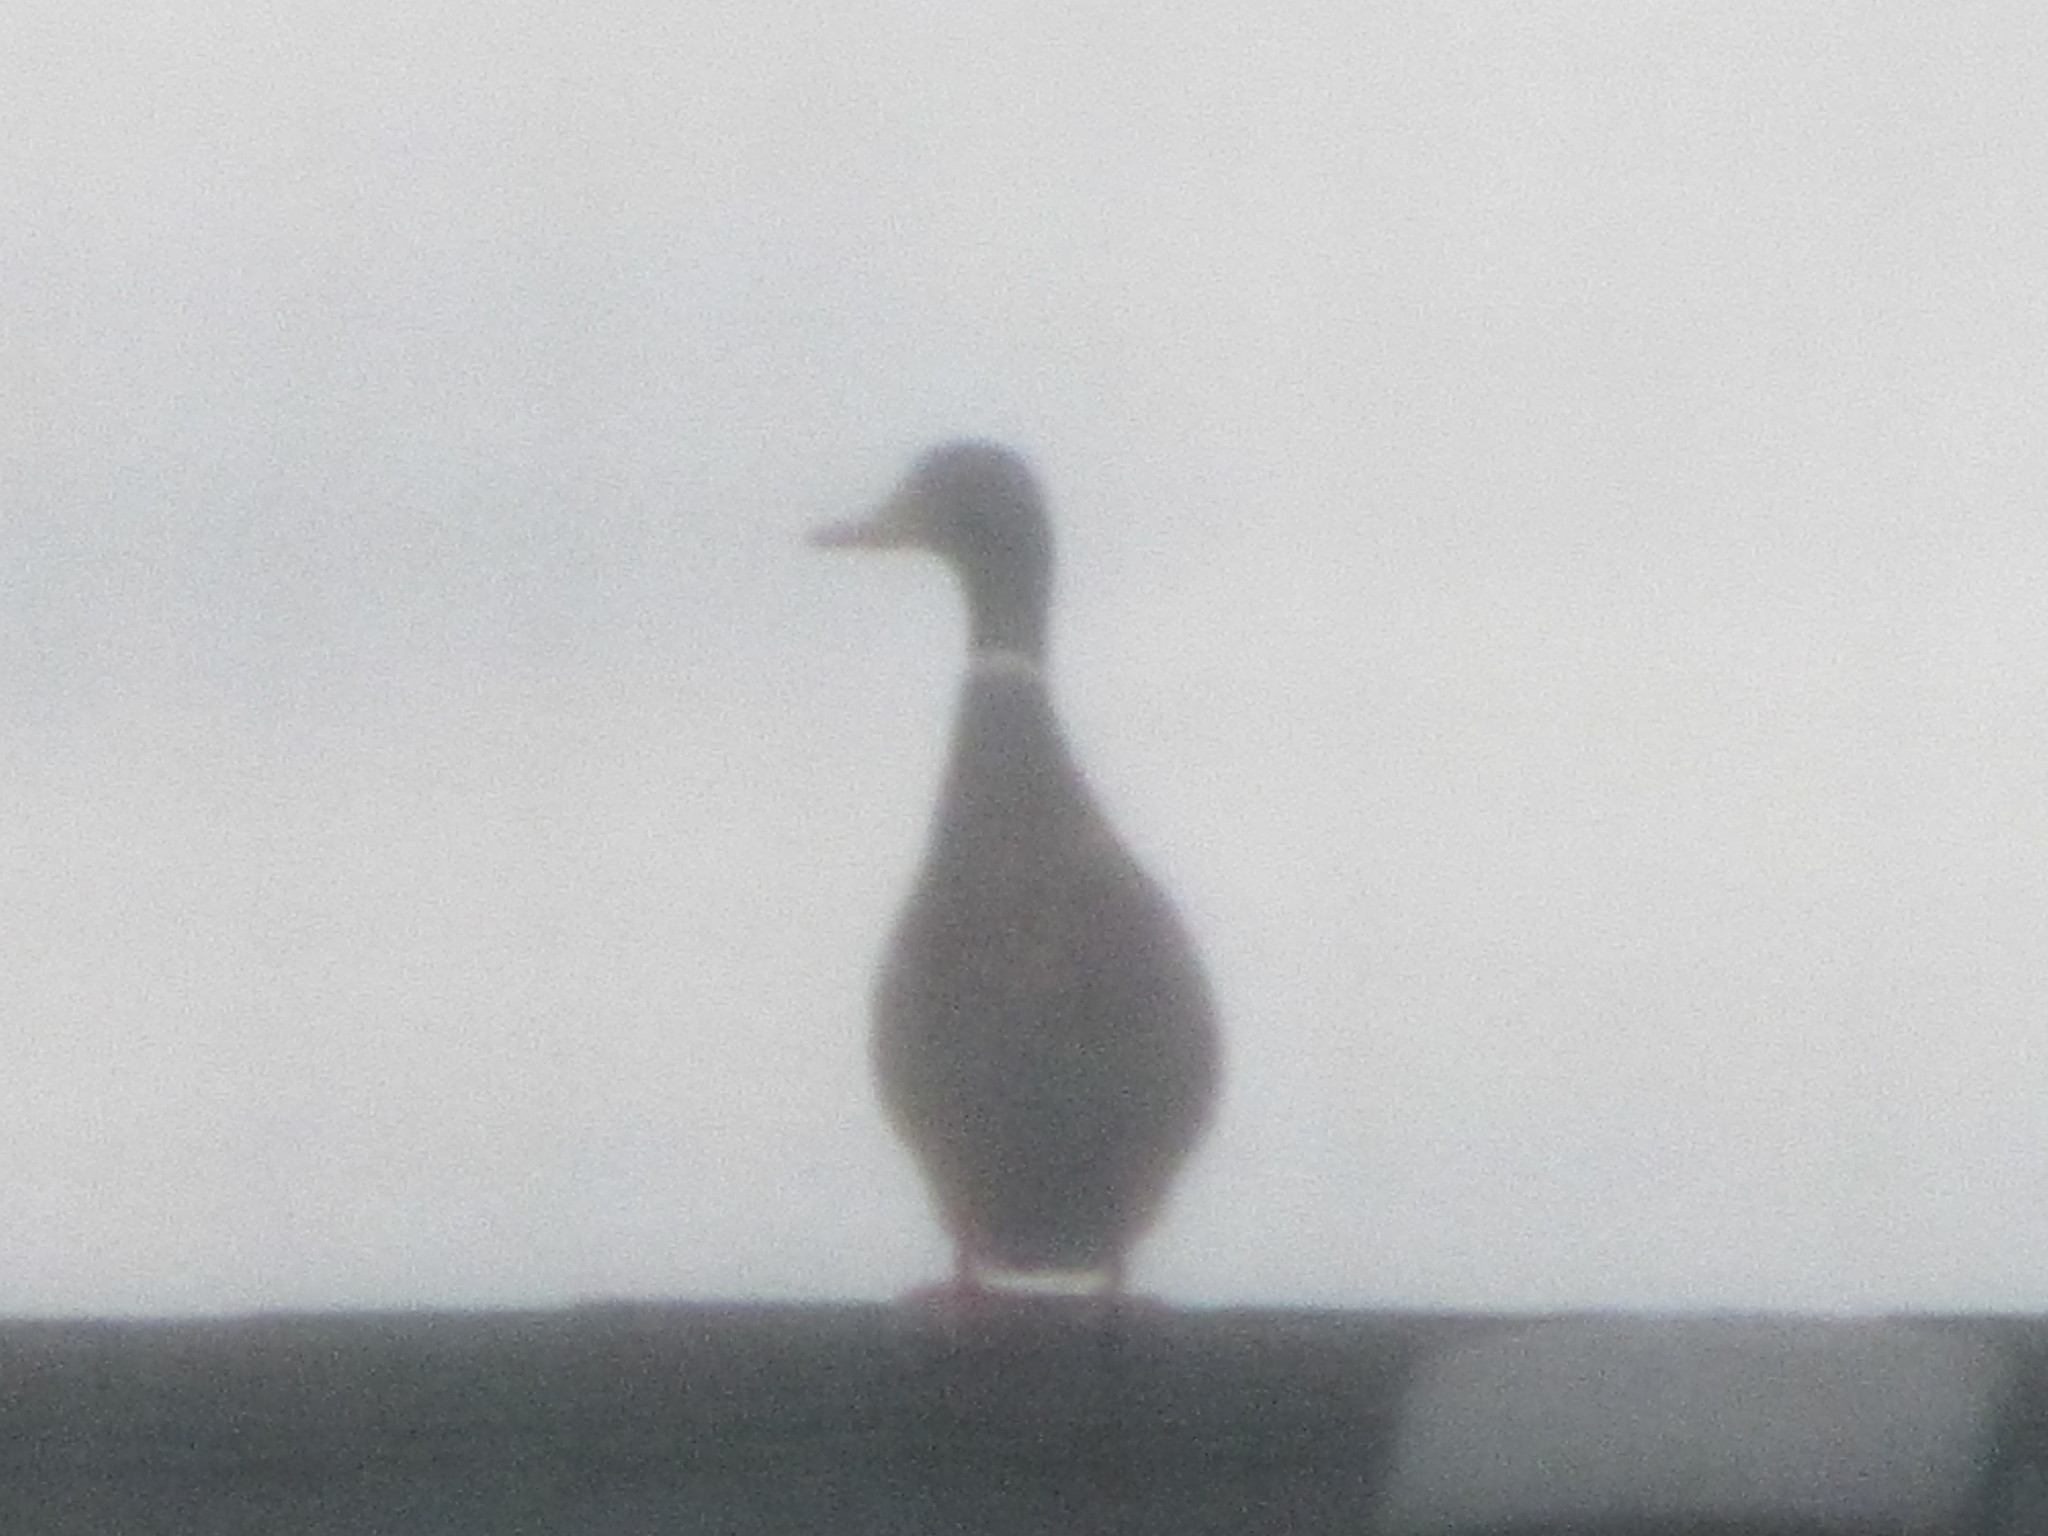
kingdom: Animalia
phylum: Chordata
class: Aves
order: Anseriformes
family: Anatidae
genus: Anas
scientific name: Anas platyrhynchos
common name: Mallard
